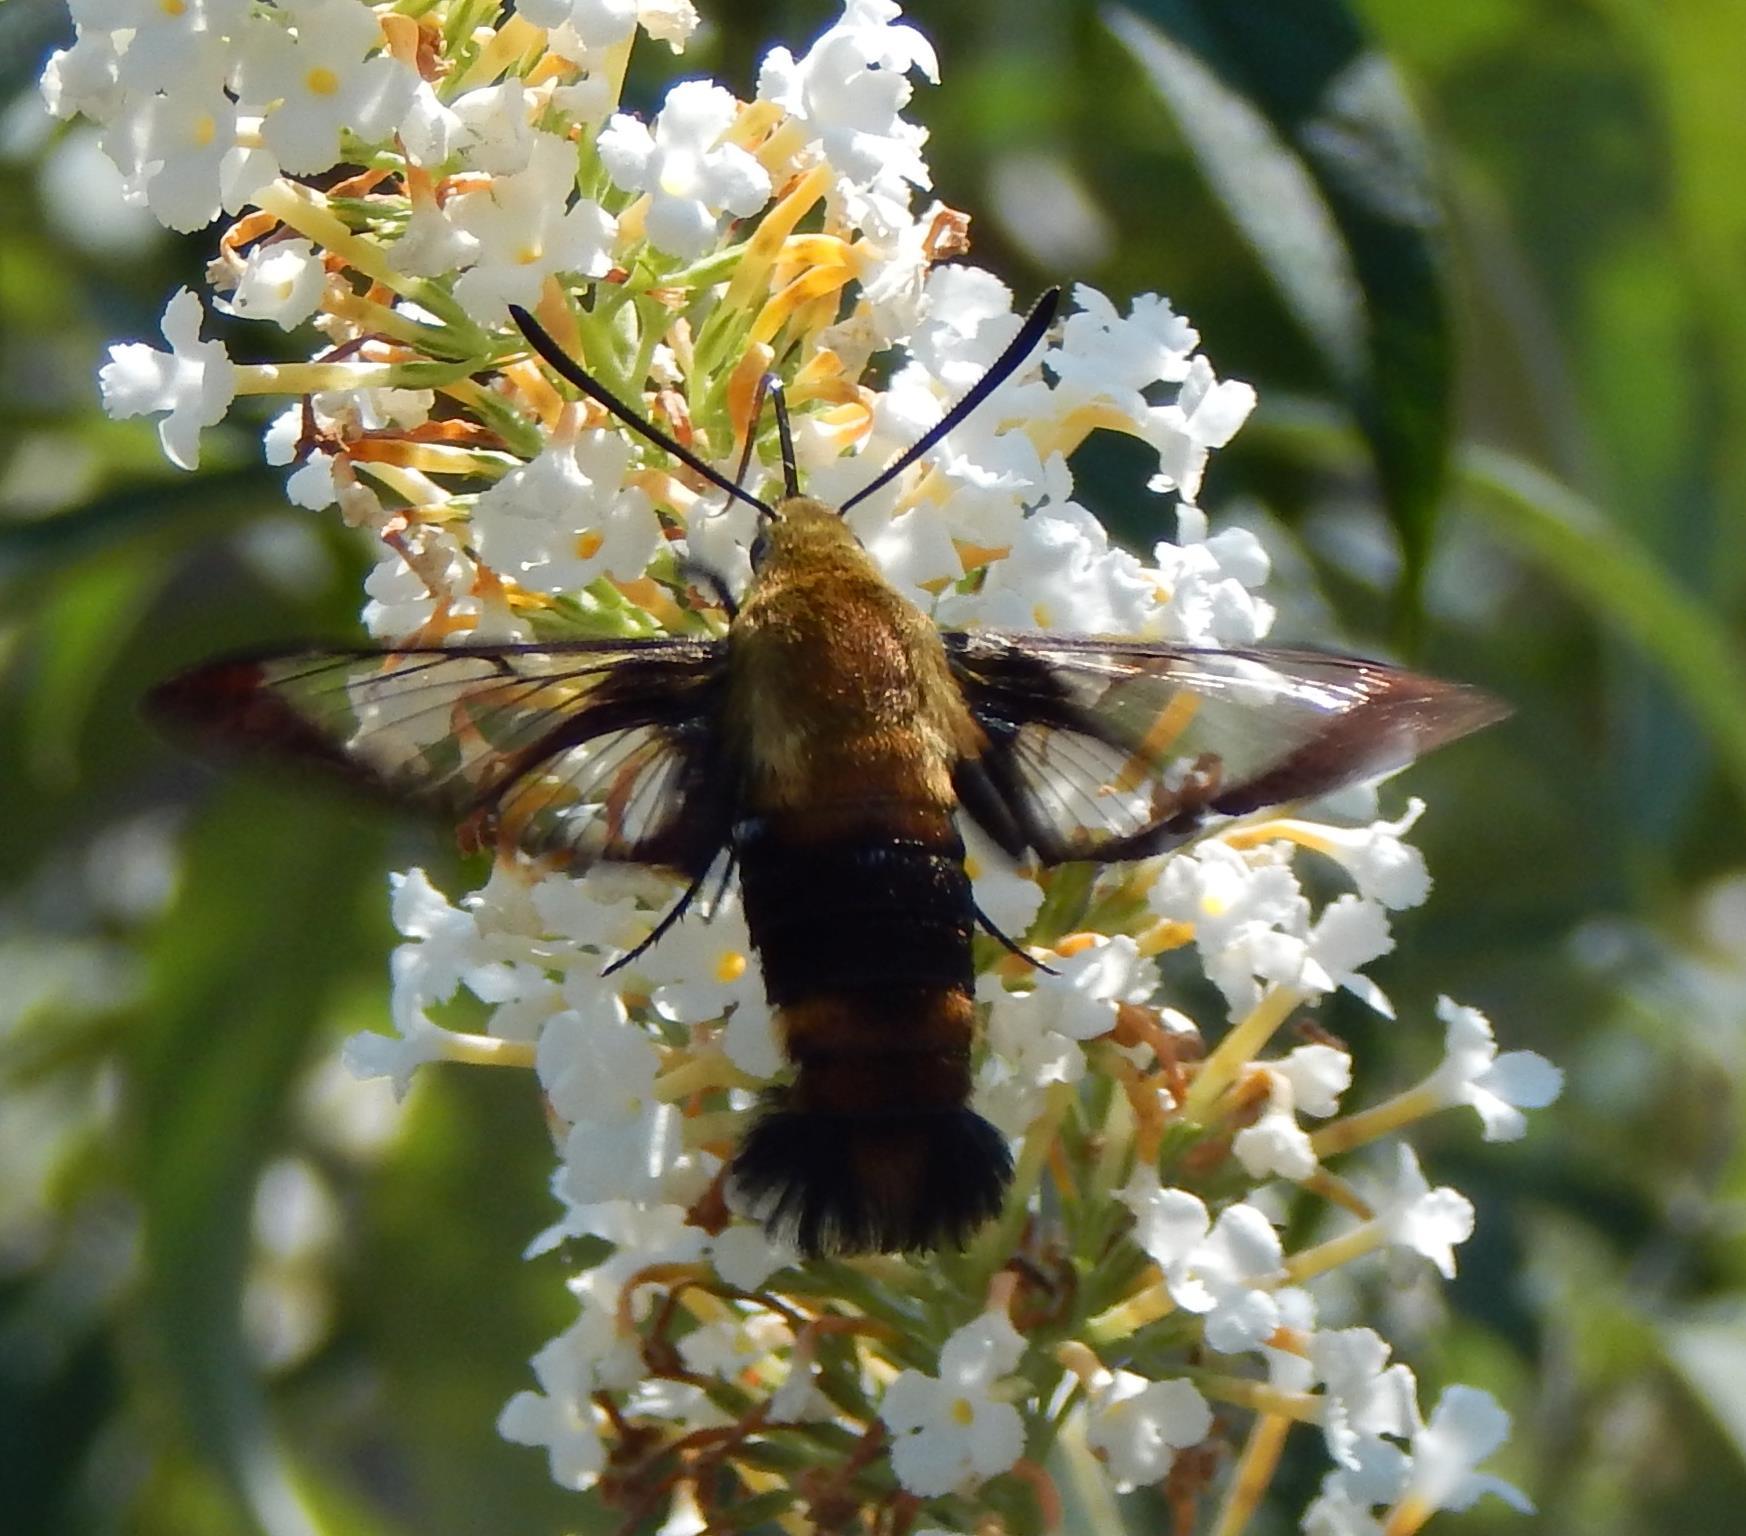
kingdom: Animalia
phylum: Arthropoda
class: Insecta
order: Lepidoptera
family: Sphingidae
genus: Hemaris
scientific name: Hemaris diffinis
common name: Bumblebee moth
